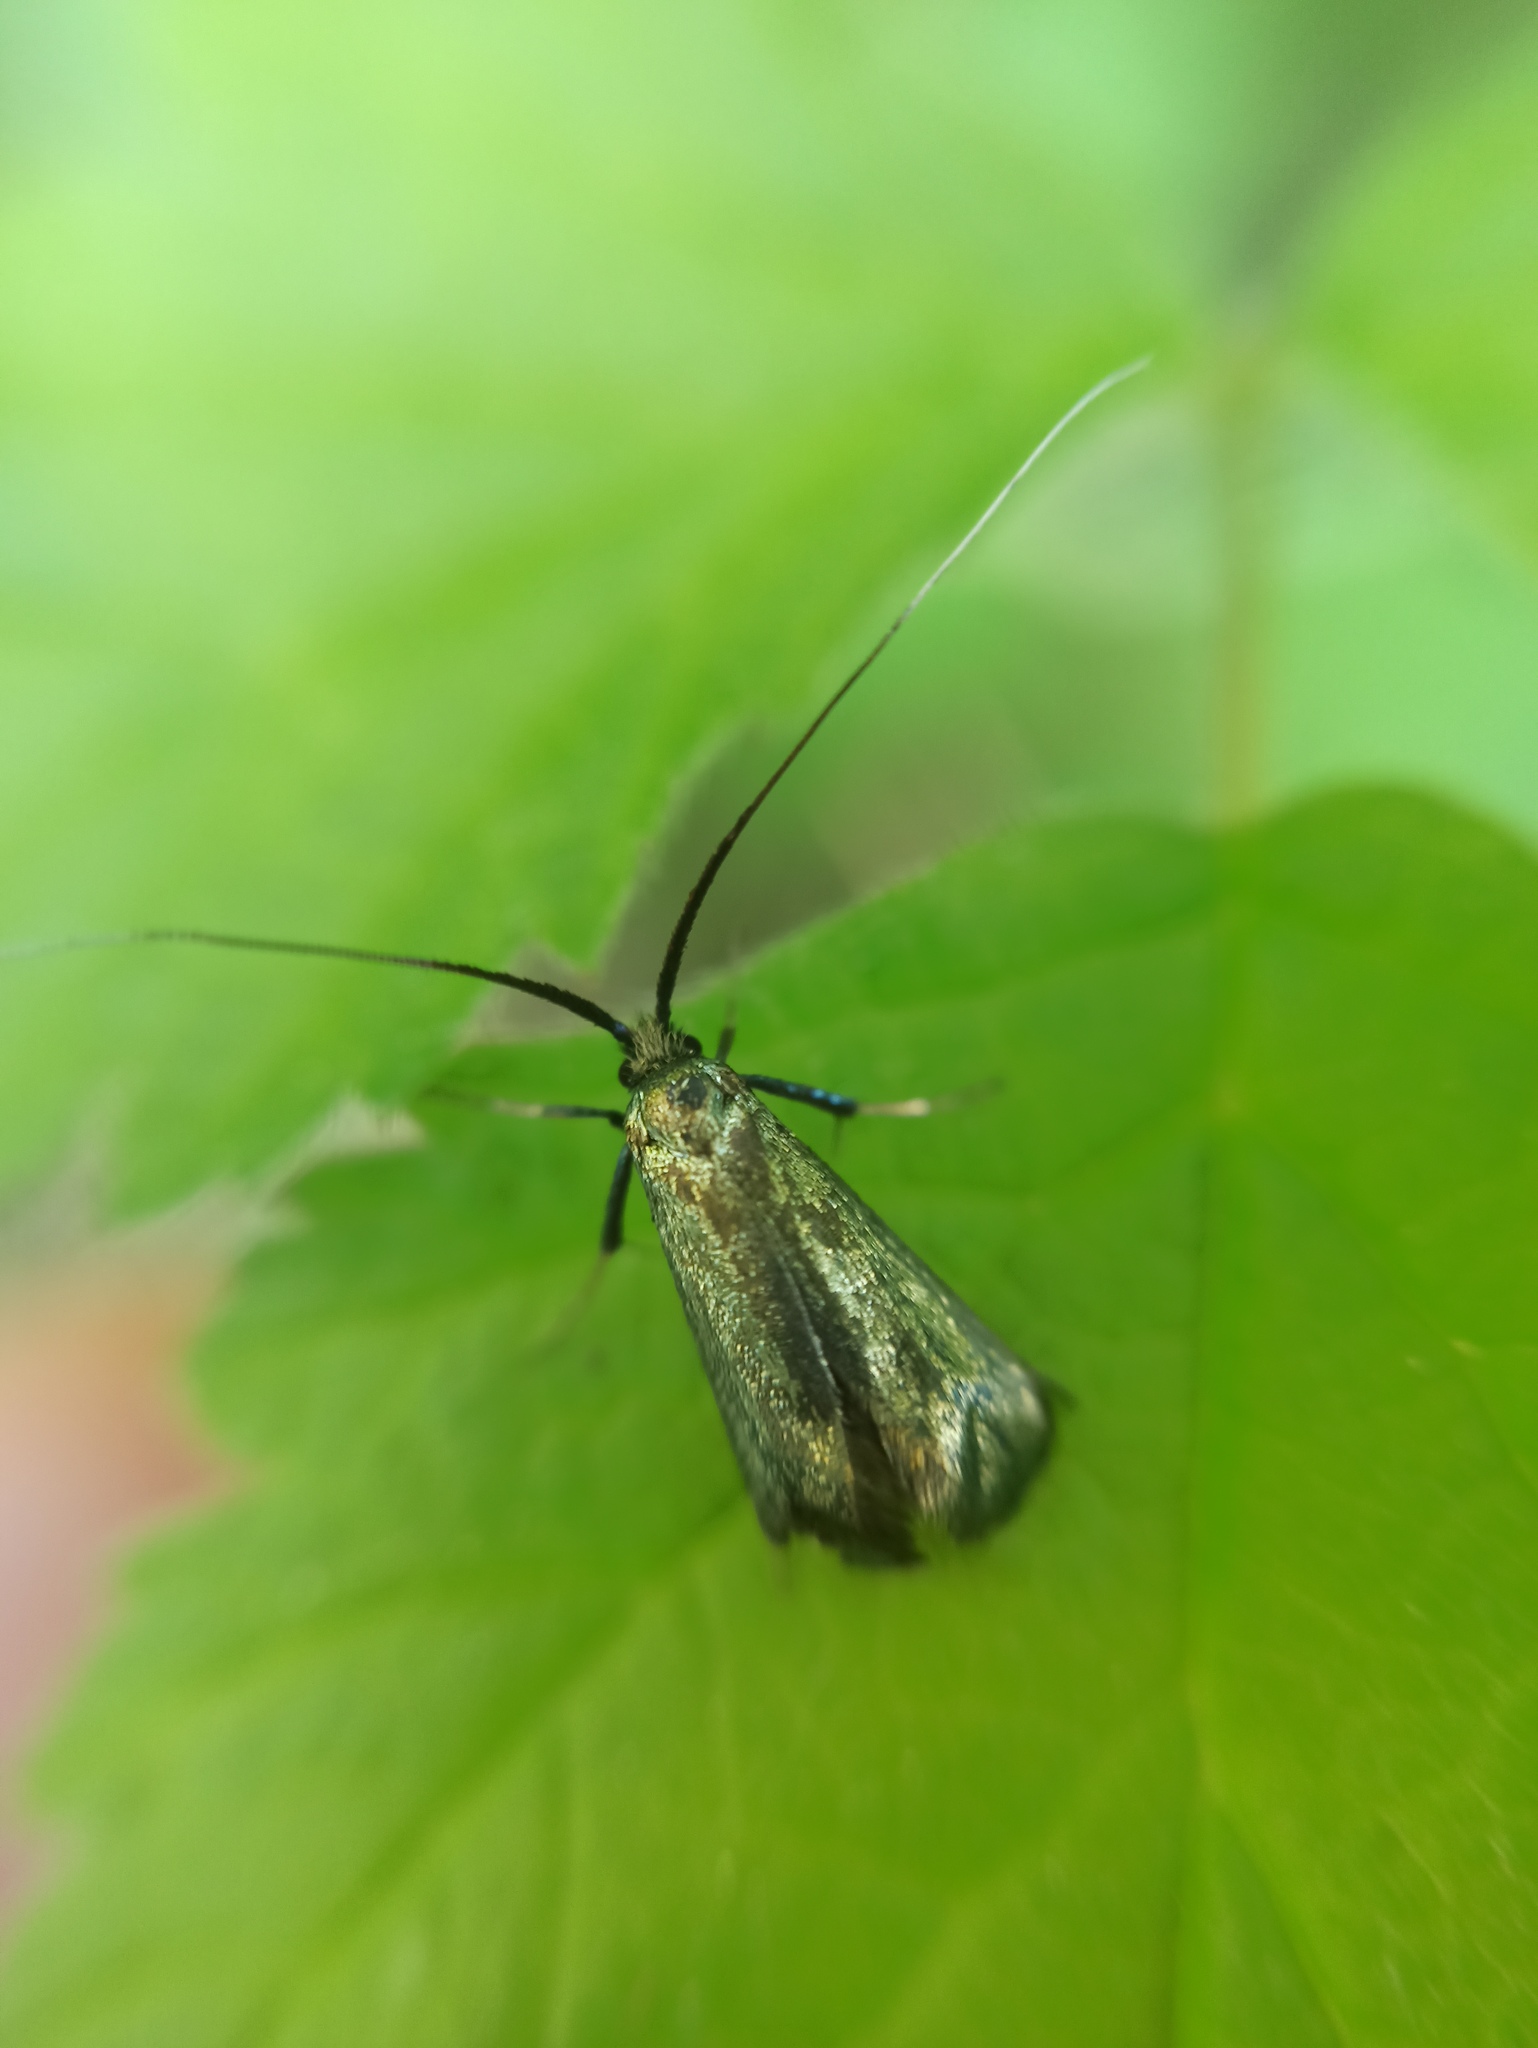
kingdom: Animalia
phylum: Arthropoda
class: Insecta
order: Lepidoptera
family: Adelidae
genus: Adela
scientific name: Adela viridella
